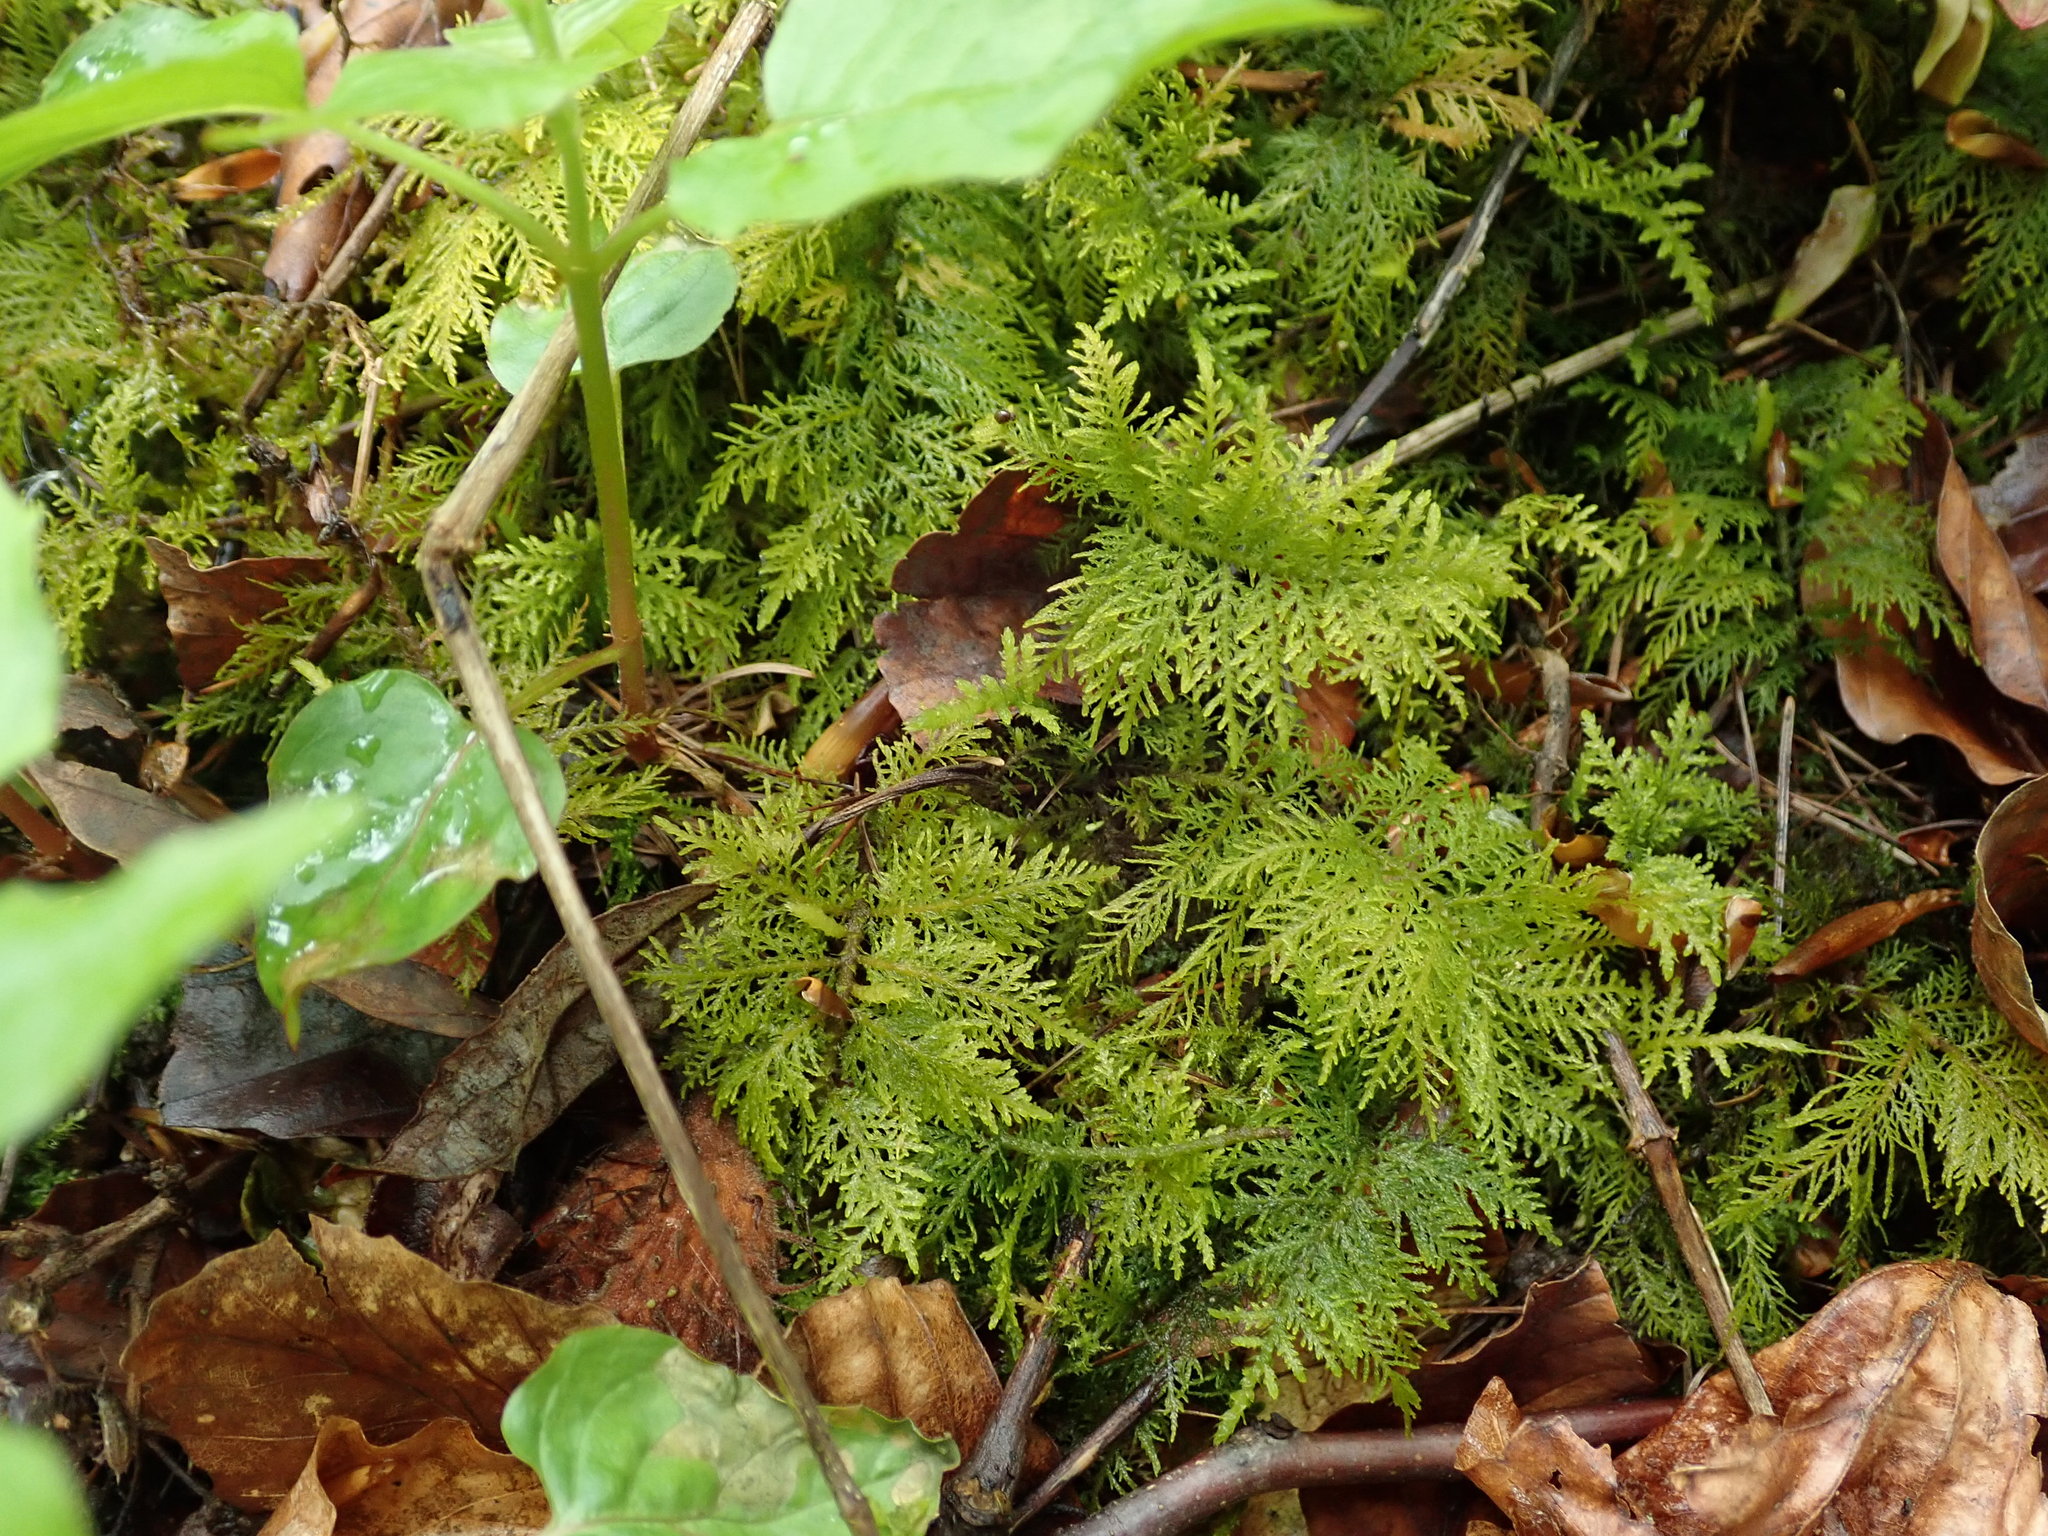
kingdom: Plantae
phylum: Bryophyta
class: Bryopsida
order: Hypnales
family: Thuidiaceae
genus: Thuidium
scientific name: Thuidium tamariscinum
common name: Common tamarisk-moss
